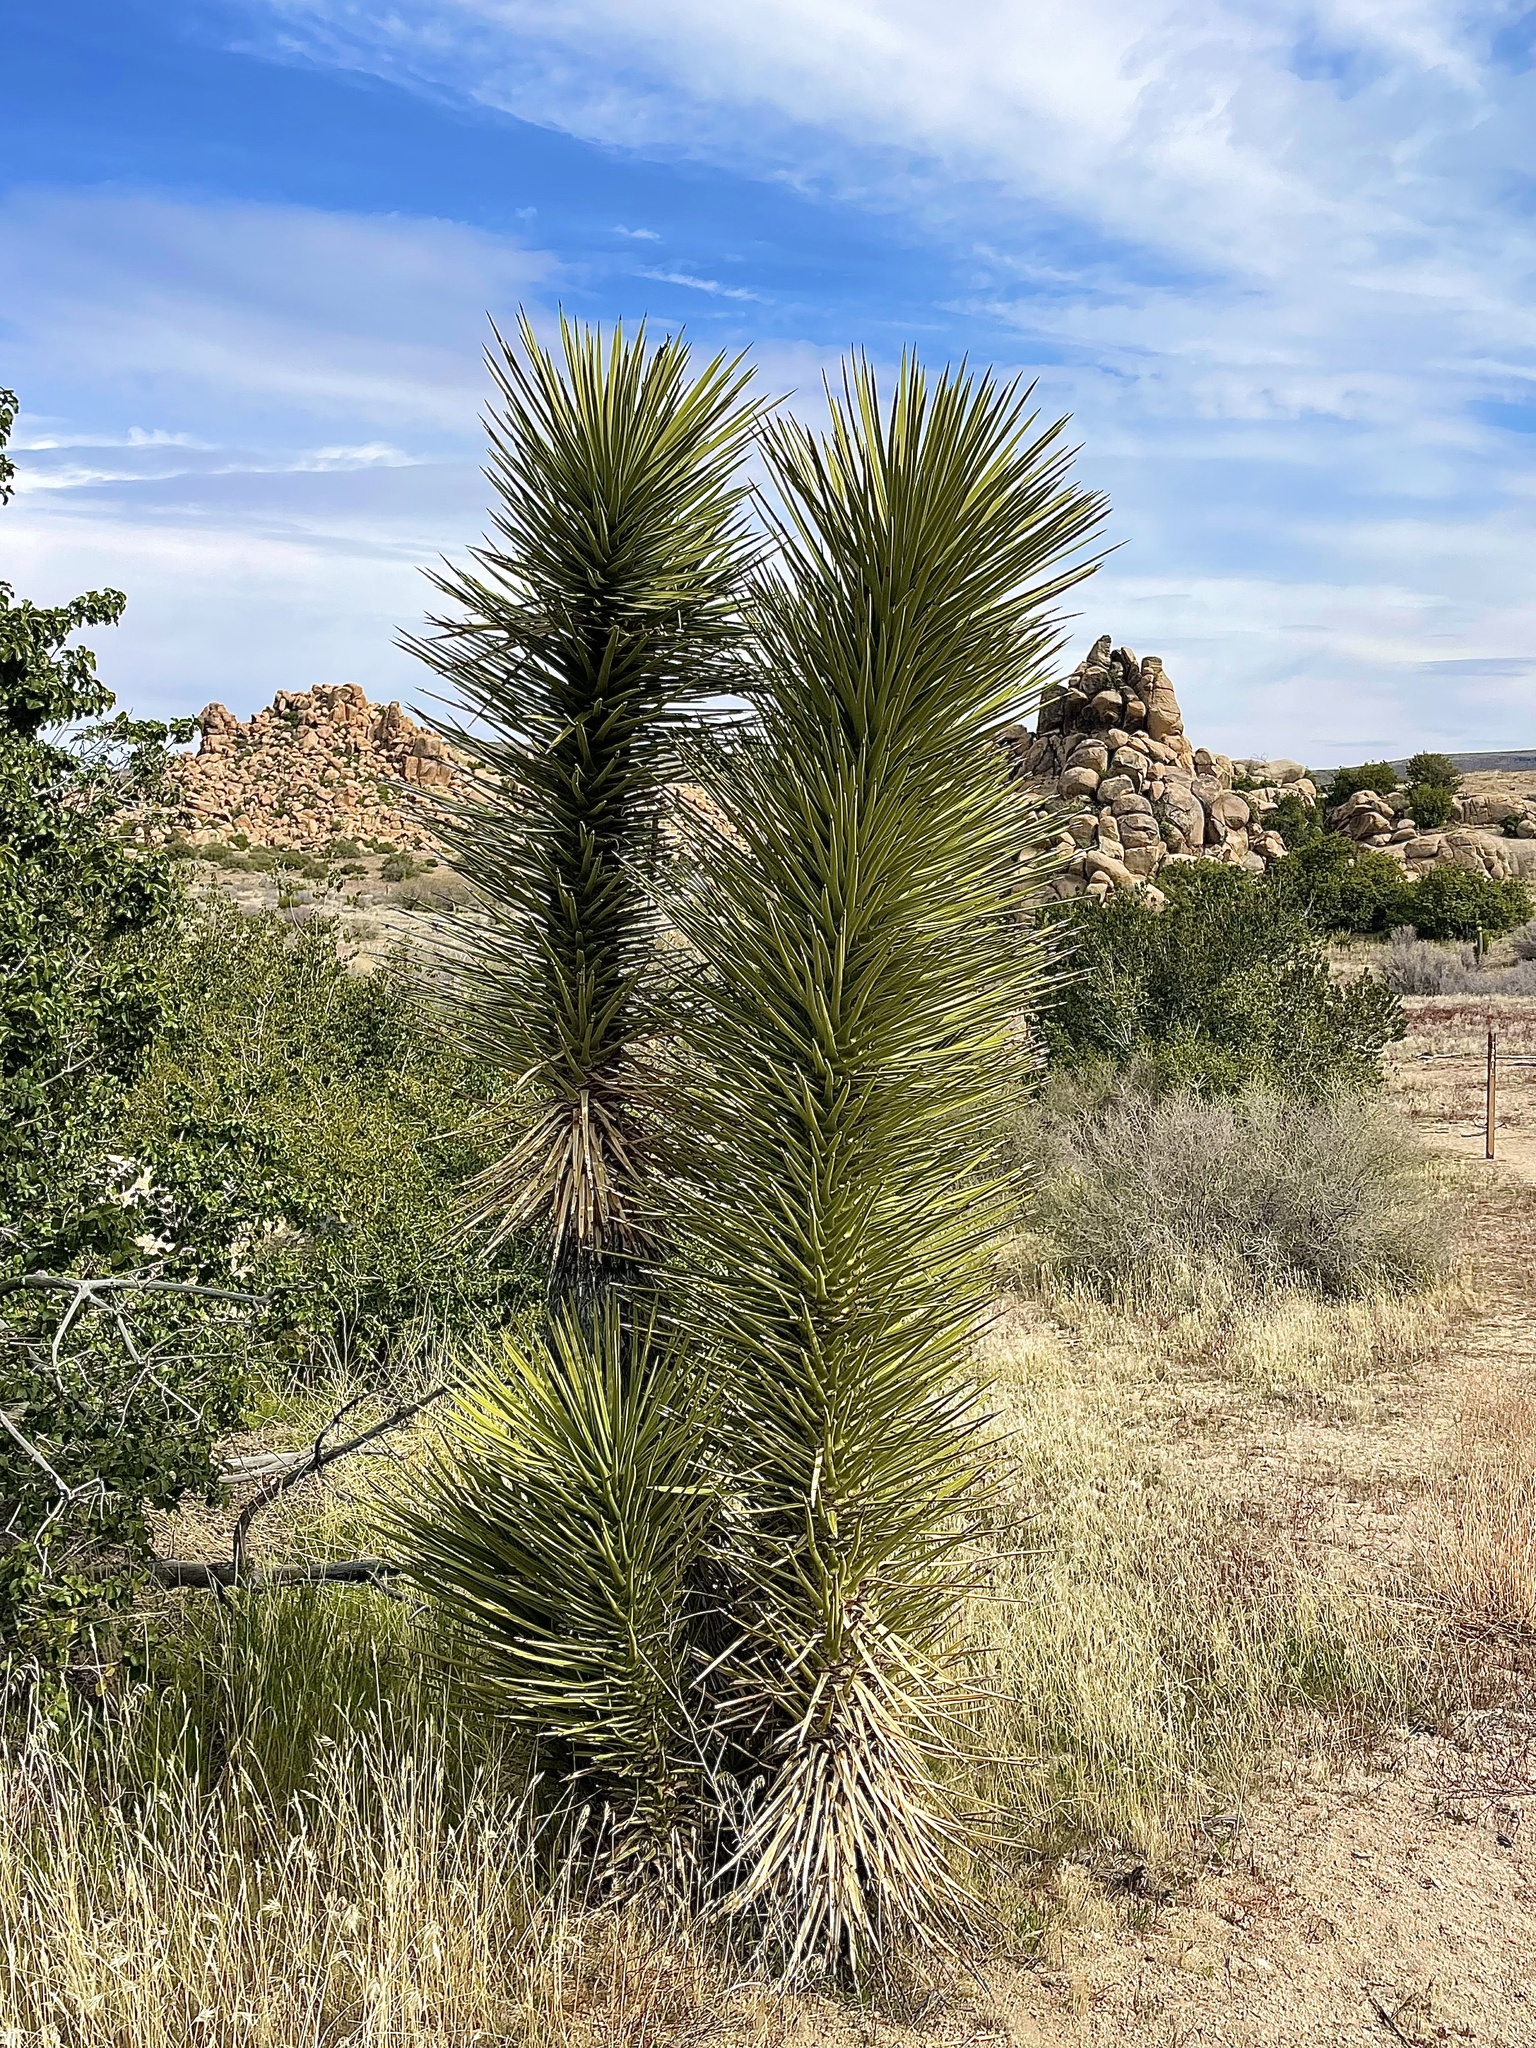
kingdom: Plantae
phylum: Tracheophyta
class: Liliopsida
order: Asparagales
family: Asparagaceae
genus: Yucca
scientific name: Yucca brevifolia
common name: Joshua tree
